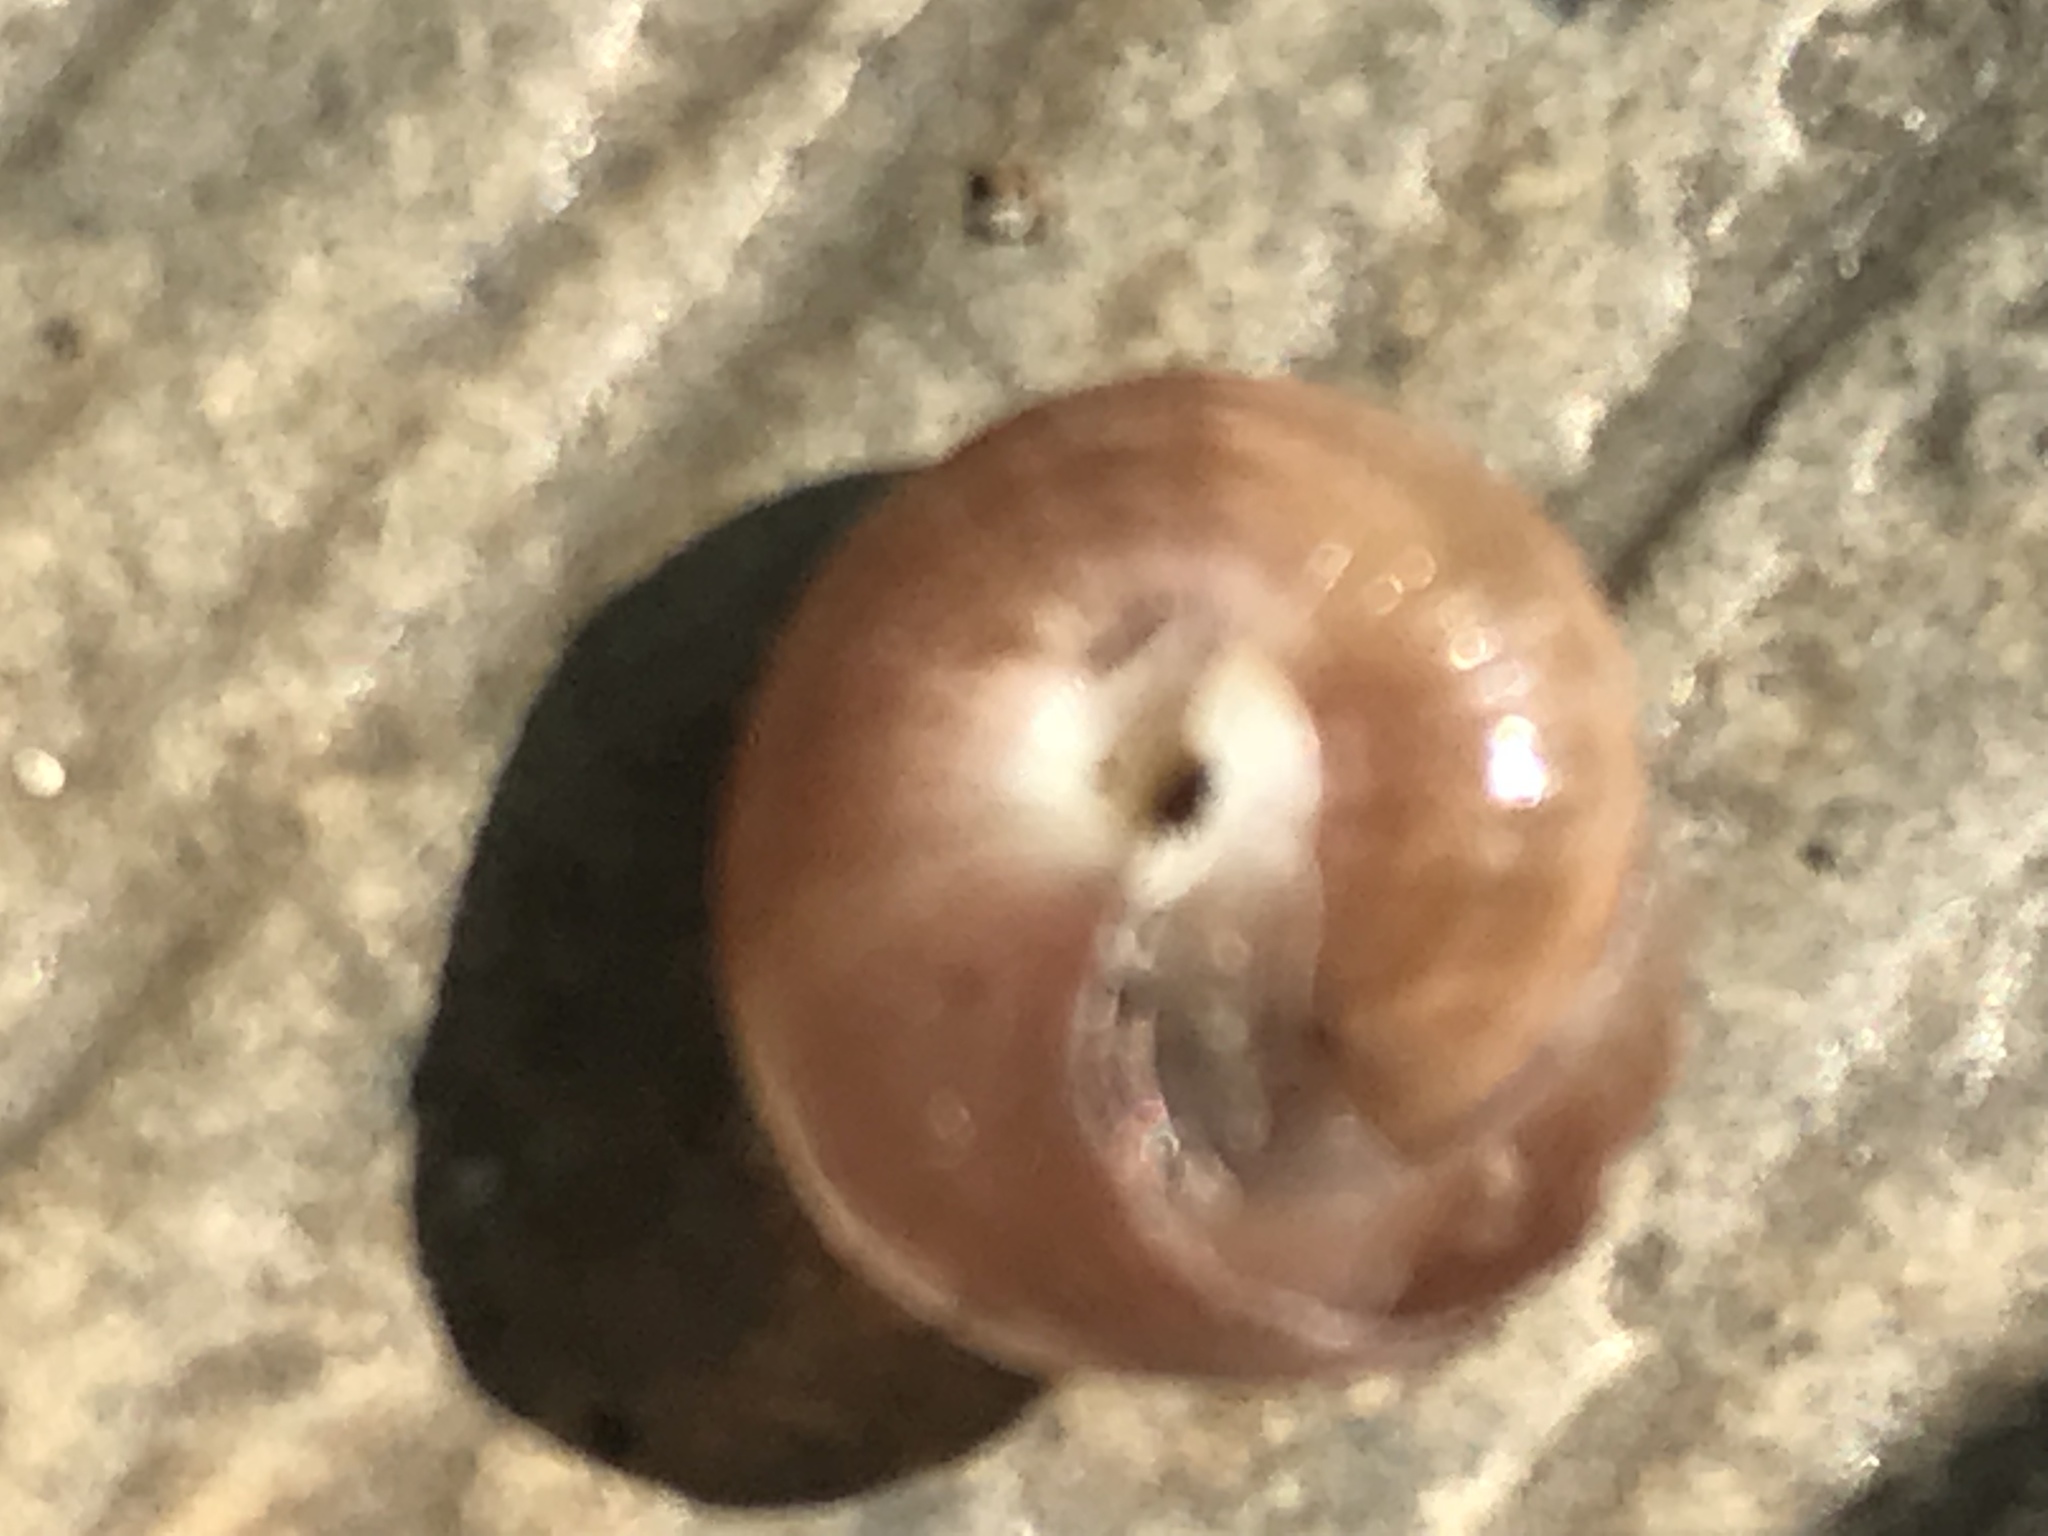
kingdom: Animalia
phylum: Mollusca
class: Gastropoda
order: Stylommatophora
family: Camaenidae
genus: Bradybaena
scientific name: Bradybaena similaris
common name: Asian trampsnail
